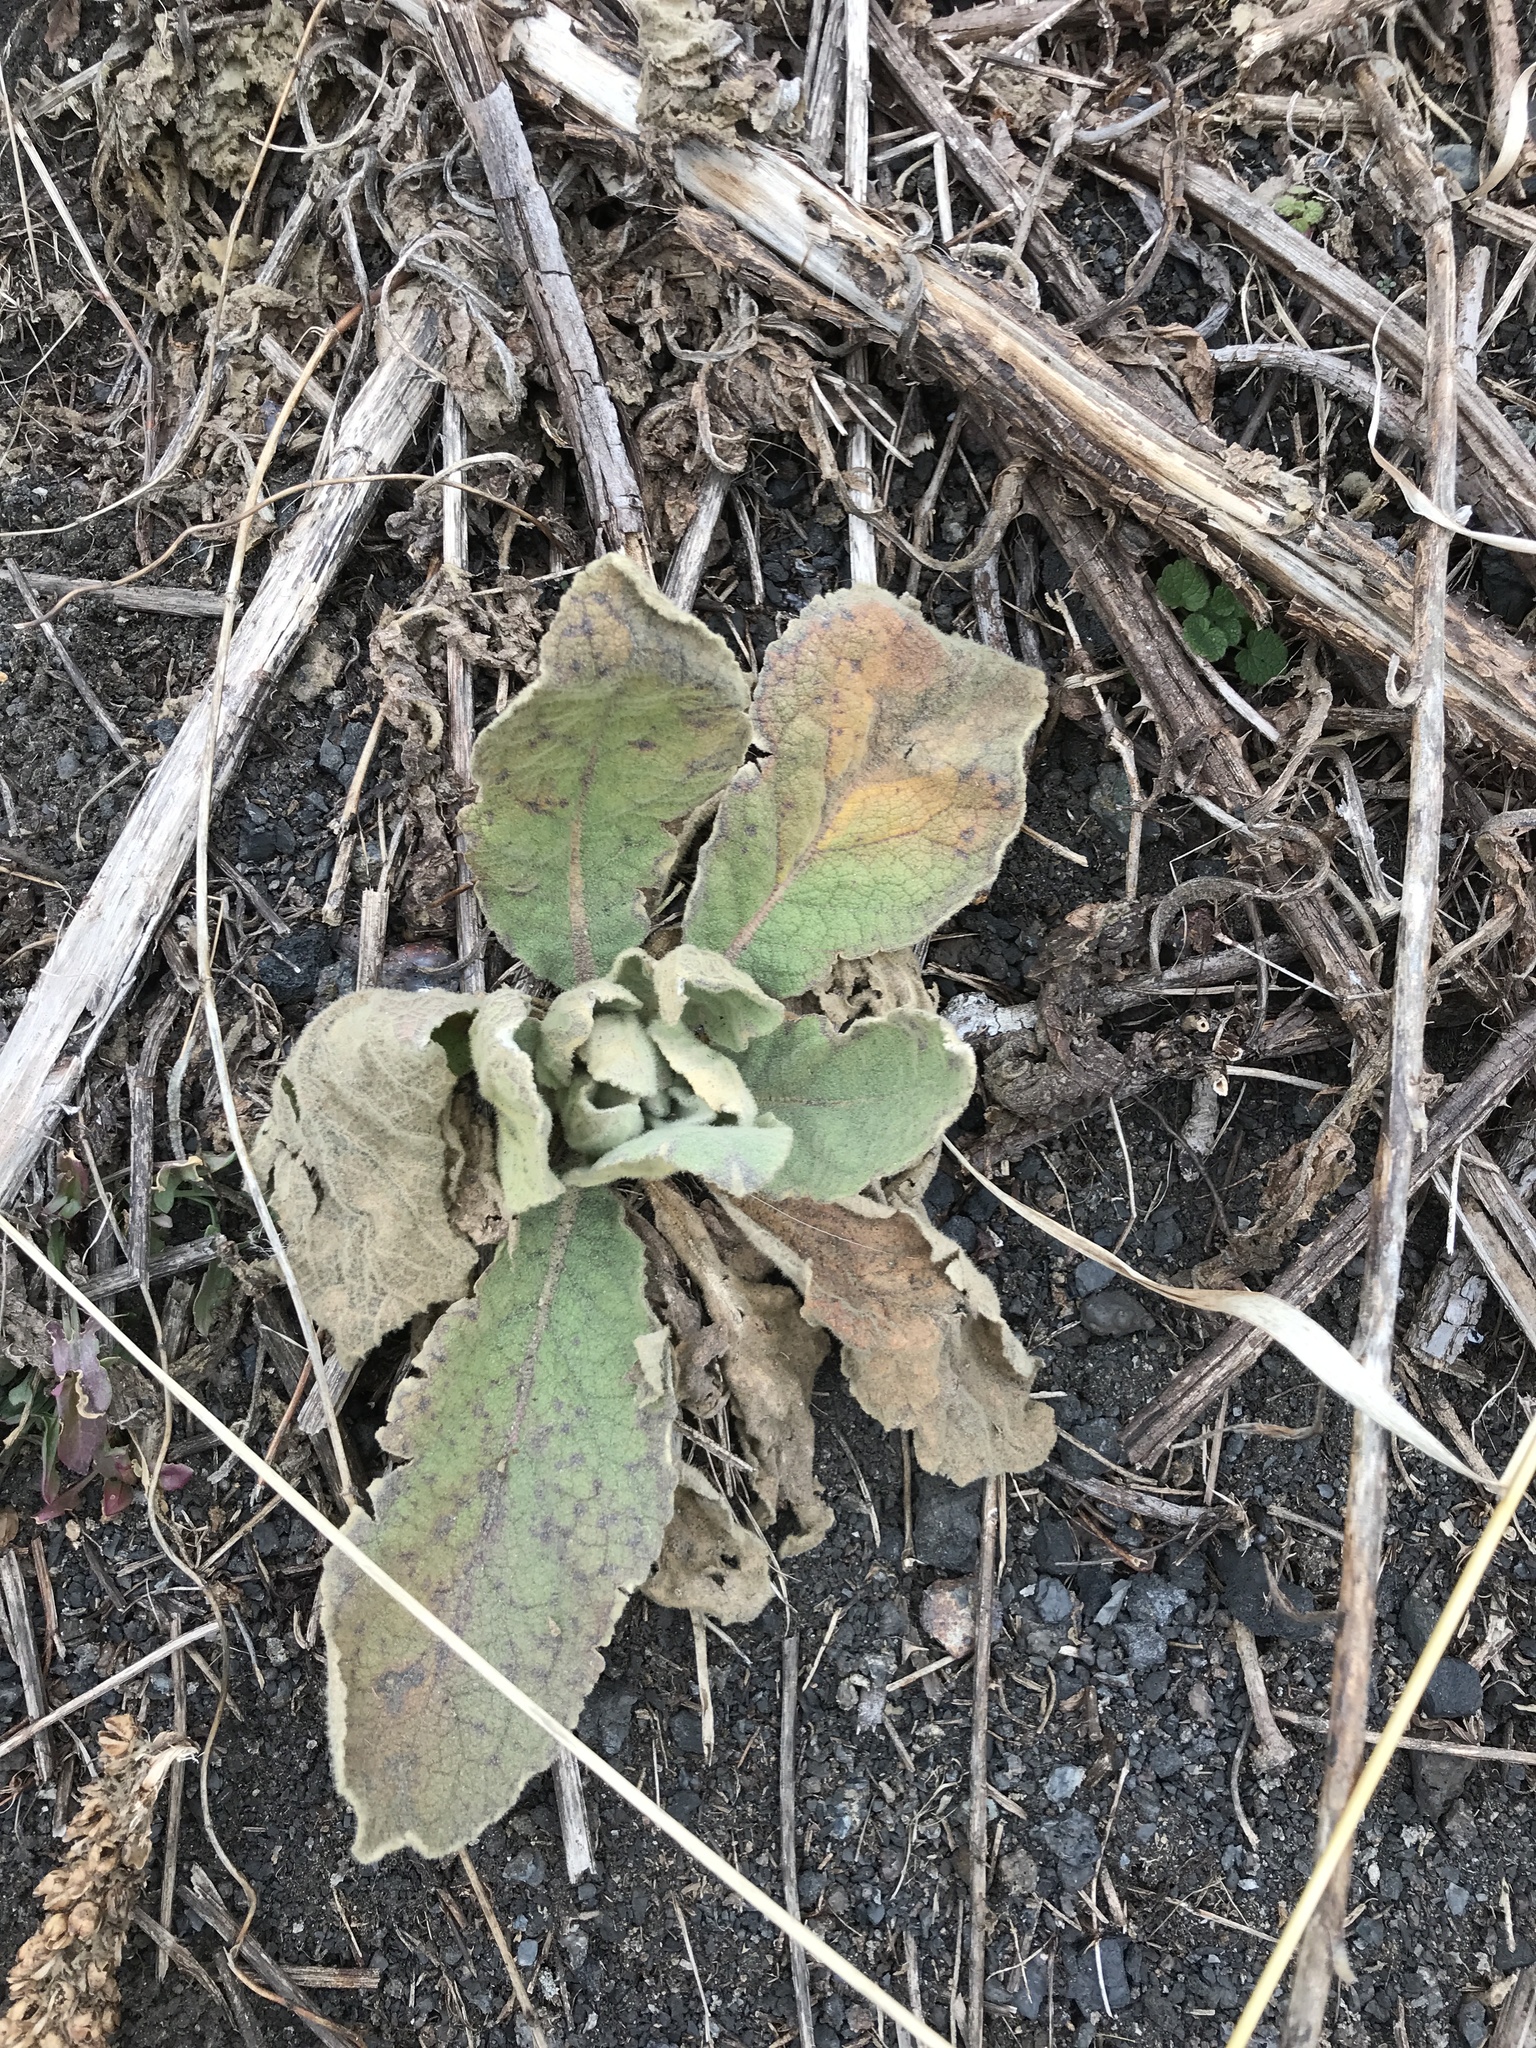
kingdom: Plantae
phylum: Tracheophyta
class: Magnoliopsida
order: Lamiales
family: Scrophulariaceae
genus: Verbascum
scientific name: Verbascum thapsus
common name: Common mullein
